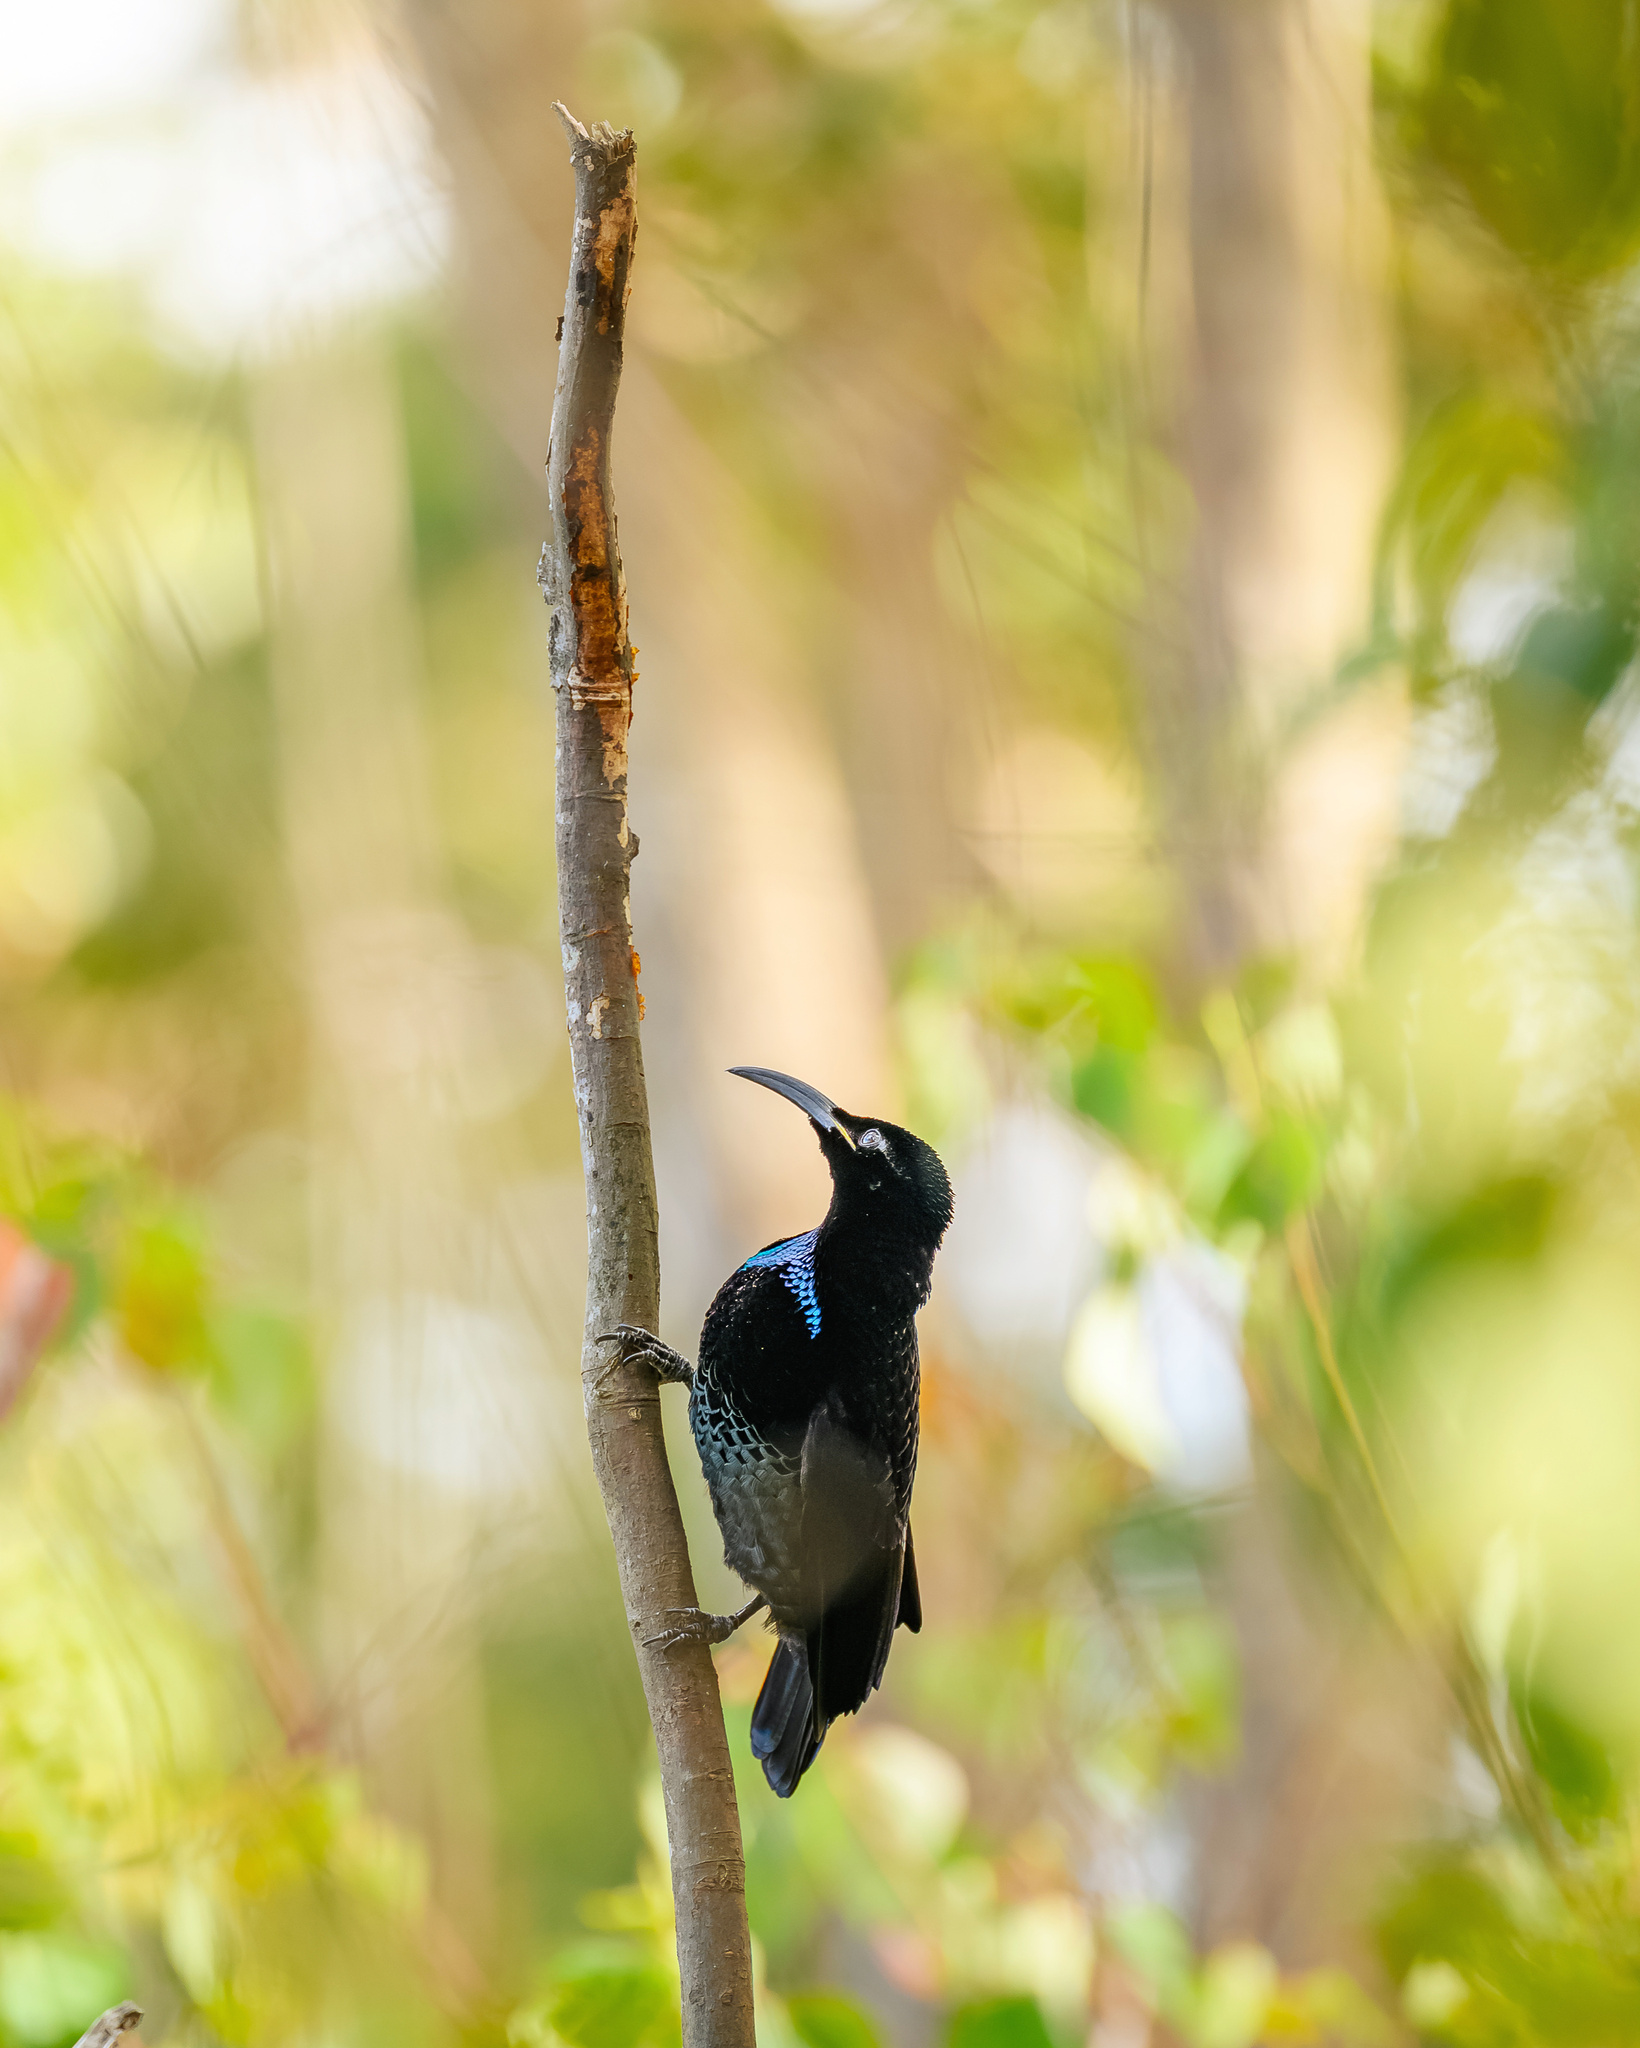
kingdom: Animalia
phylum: Chordata
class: Aves
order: Passeriformes
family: Paradisaeidae
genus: Ptiloris
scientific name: Ptiloris paradiseus
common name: Paradise riflebird
